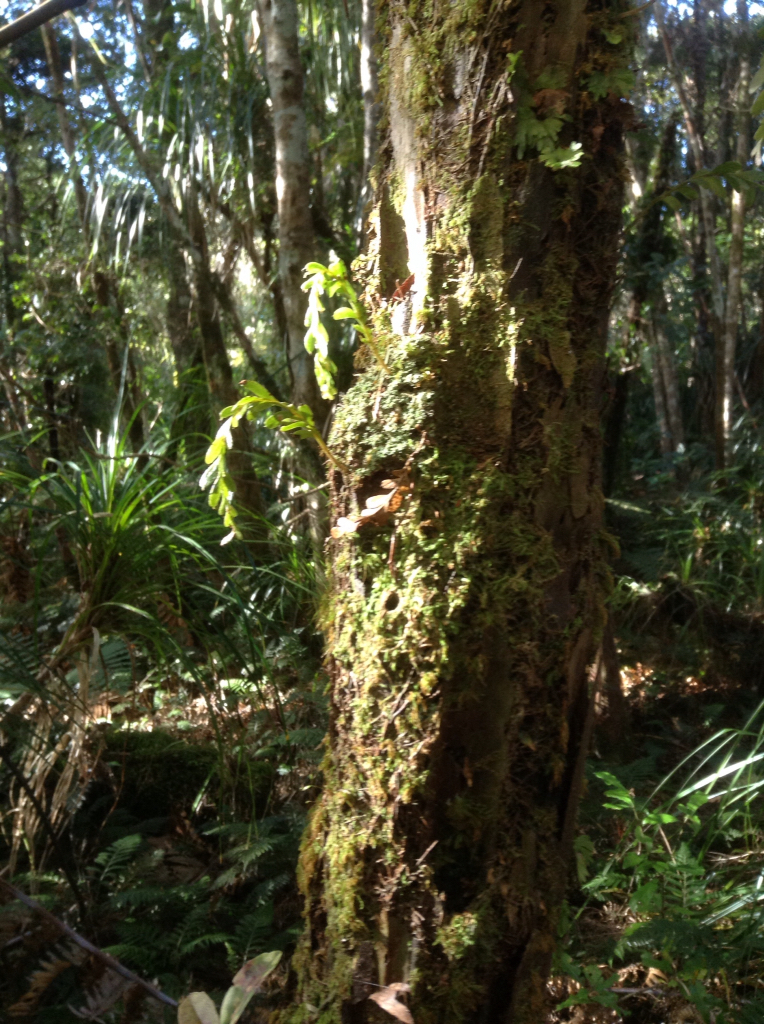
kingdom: Plantae
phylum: Tracheophyta
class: Polypodiopsida
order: Psilotales
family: Psilotaceae
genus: Tmesipteris
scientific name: Tmesipteris tannensis
